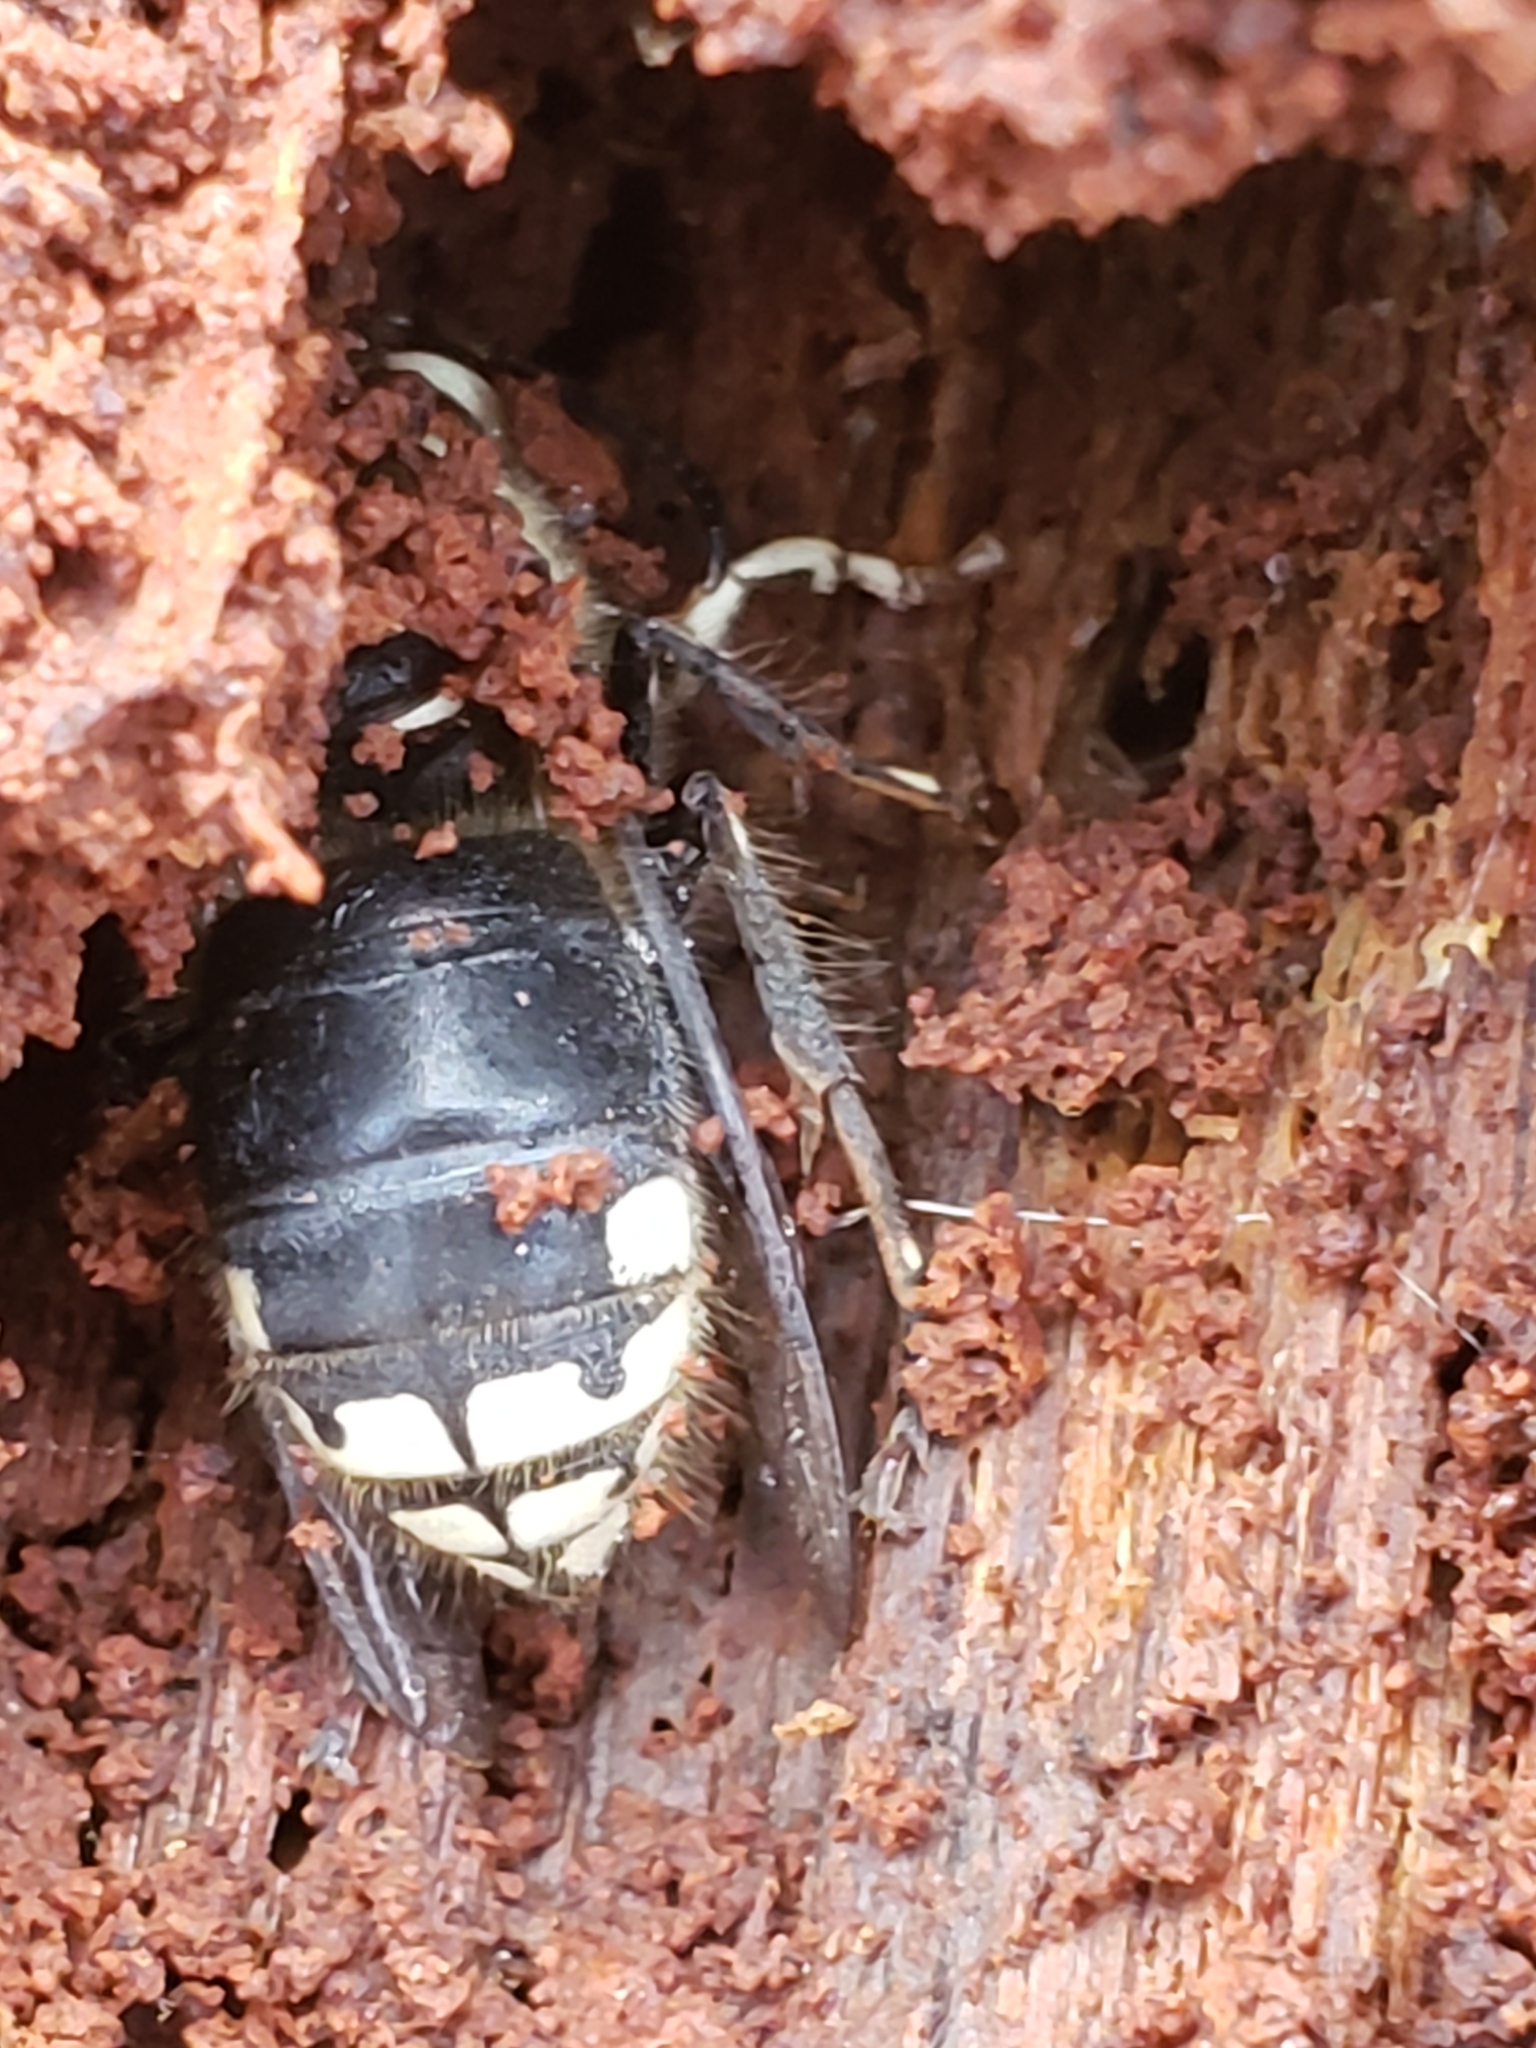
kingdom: Animalia
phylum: Arthropoda
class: Insecta
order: Hymenoptera
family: Vespidae
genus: Dolichovespula
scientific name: Dolichovespula maculata
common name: Bald-faced hornet
